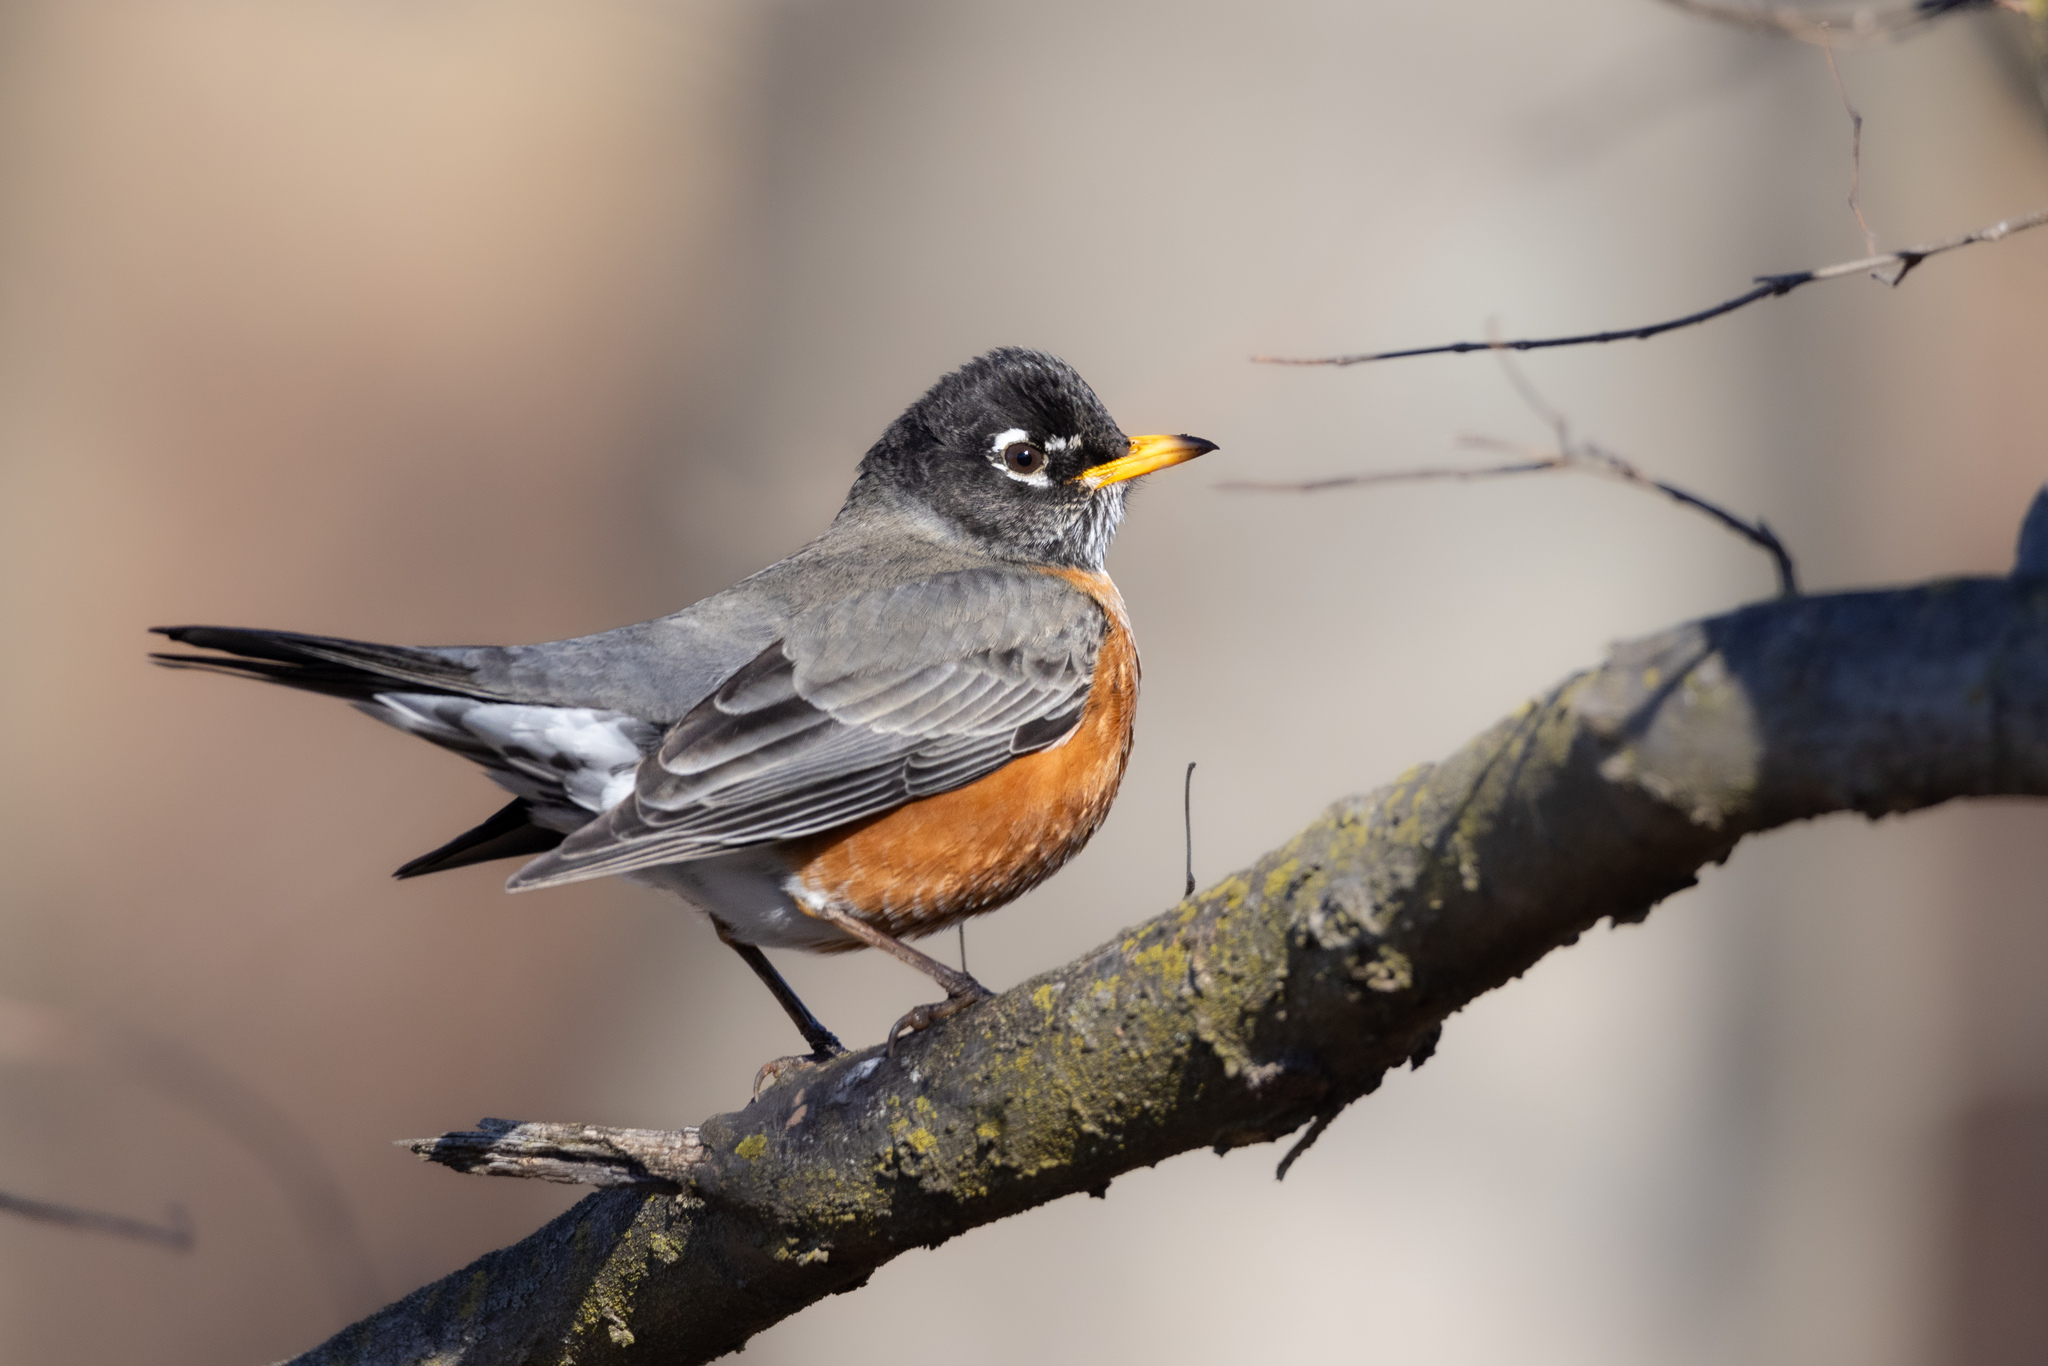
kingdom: Animalia
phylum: Chordata
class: Aves
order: Passeriformes
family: Turdidae
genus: Turdus
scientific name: Turdus migratorius
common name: American robin
